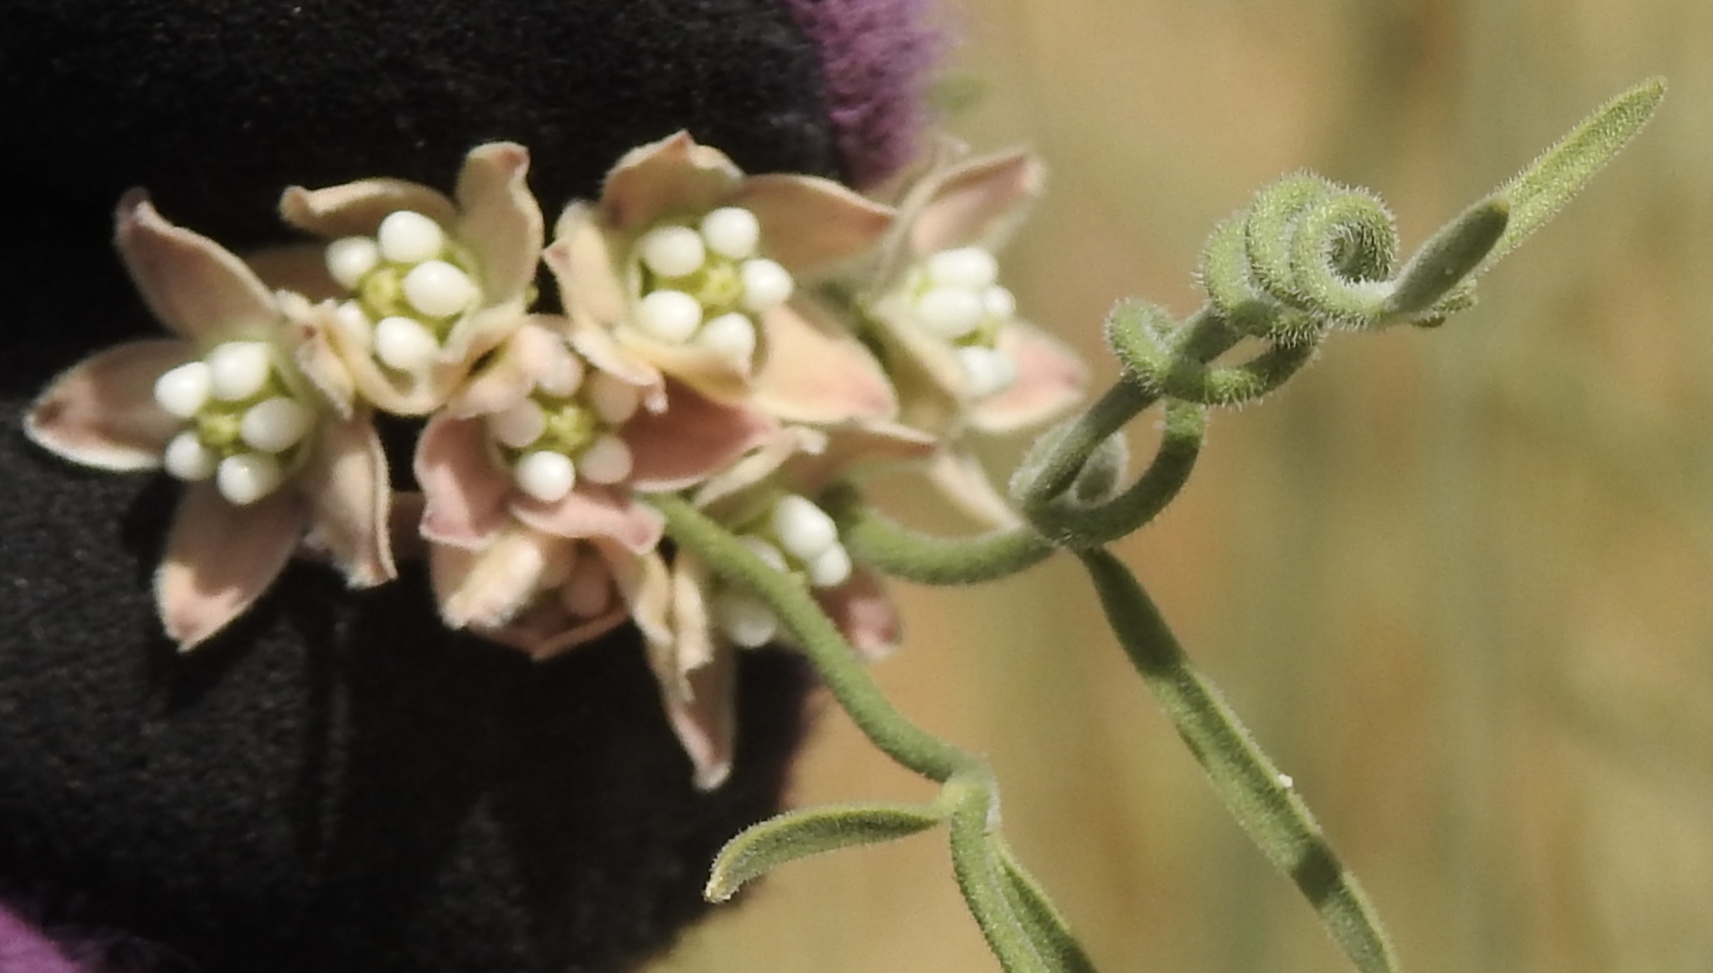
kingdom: Plantae
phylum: Tracheophyta
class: Magnoliopsida
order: Gentianales
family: Apocynaceae
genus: Funastrum
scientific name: Funastrum hirtellum
